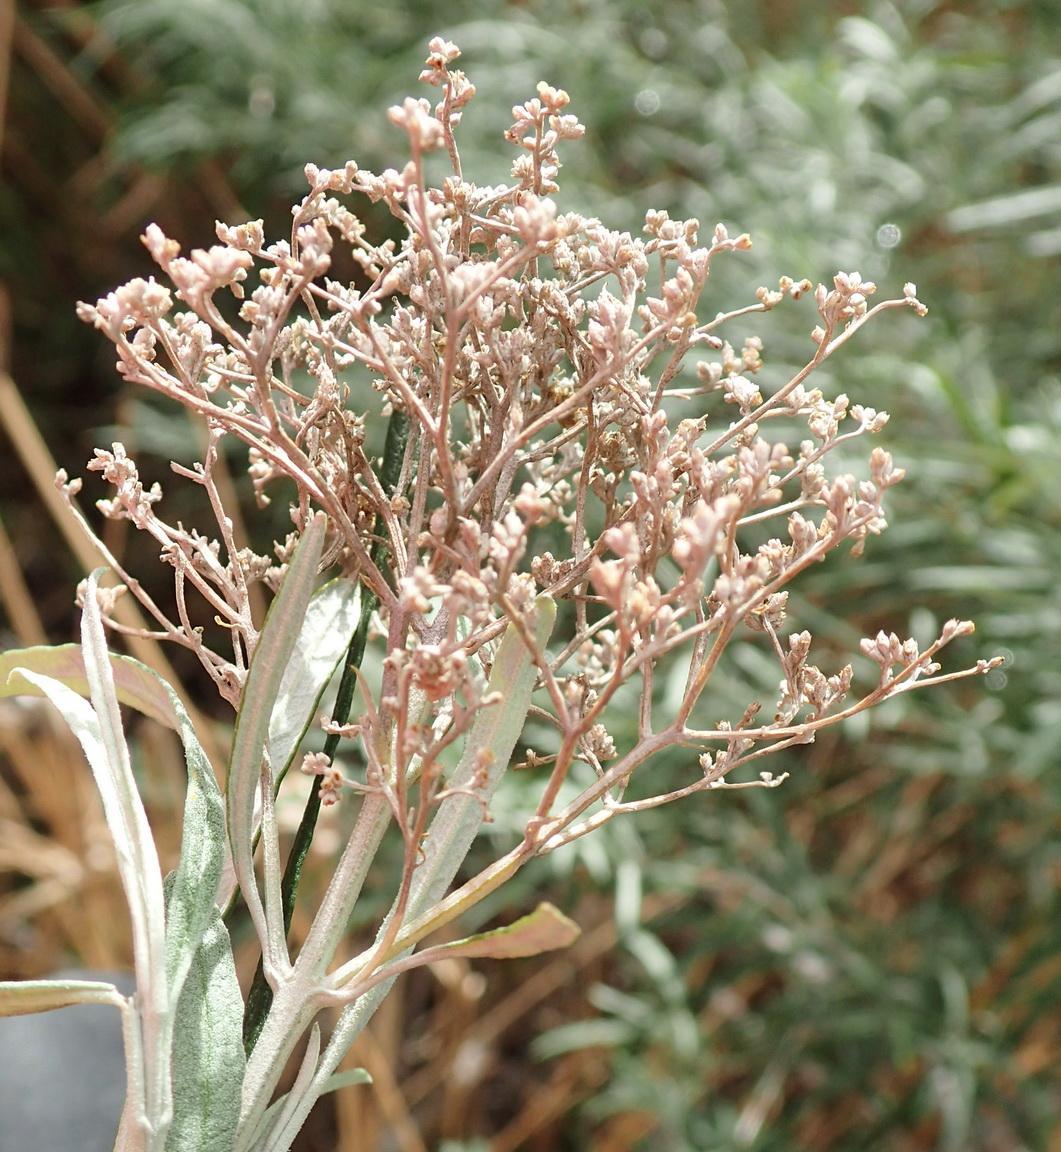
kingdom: Plantae
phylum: Tracheophyta
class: Magnoliopsida
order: Lamiales
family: Scrophulariaceae
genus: Buddleja
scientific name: Buddleja saligna
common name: False olive
